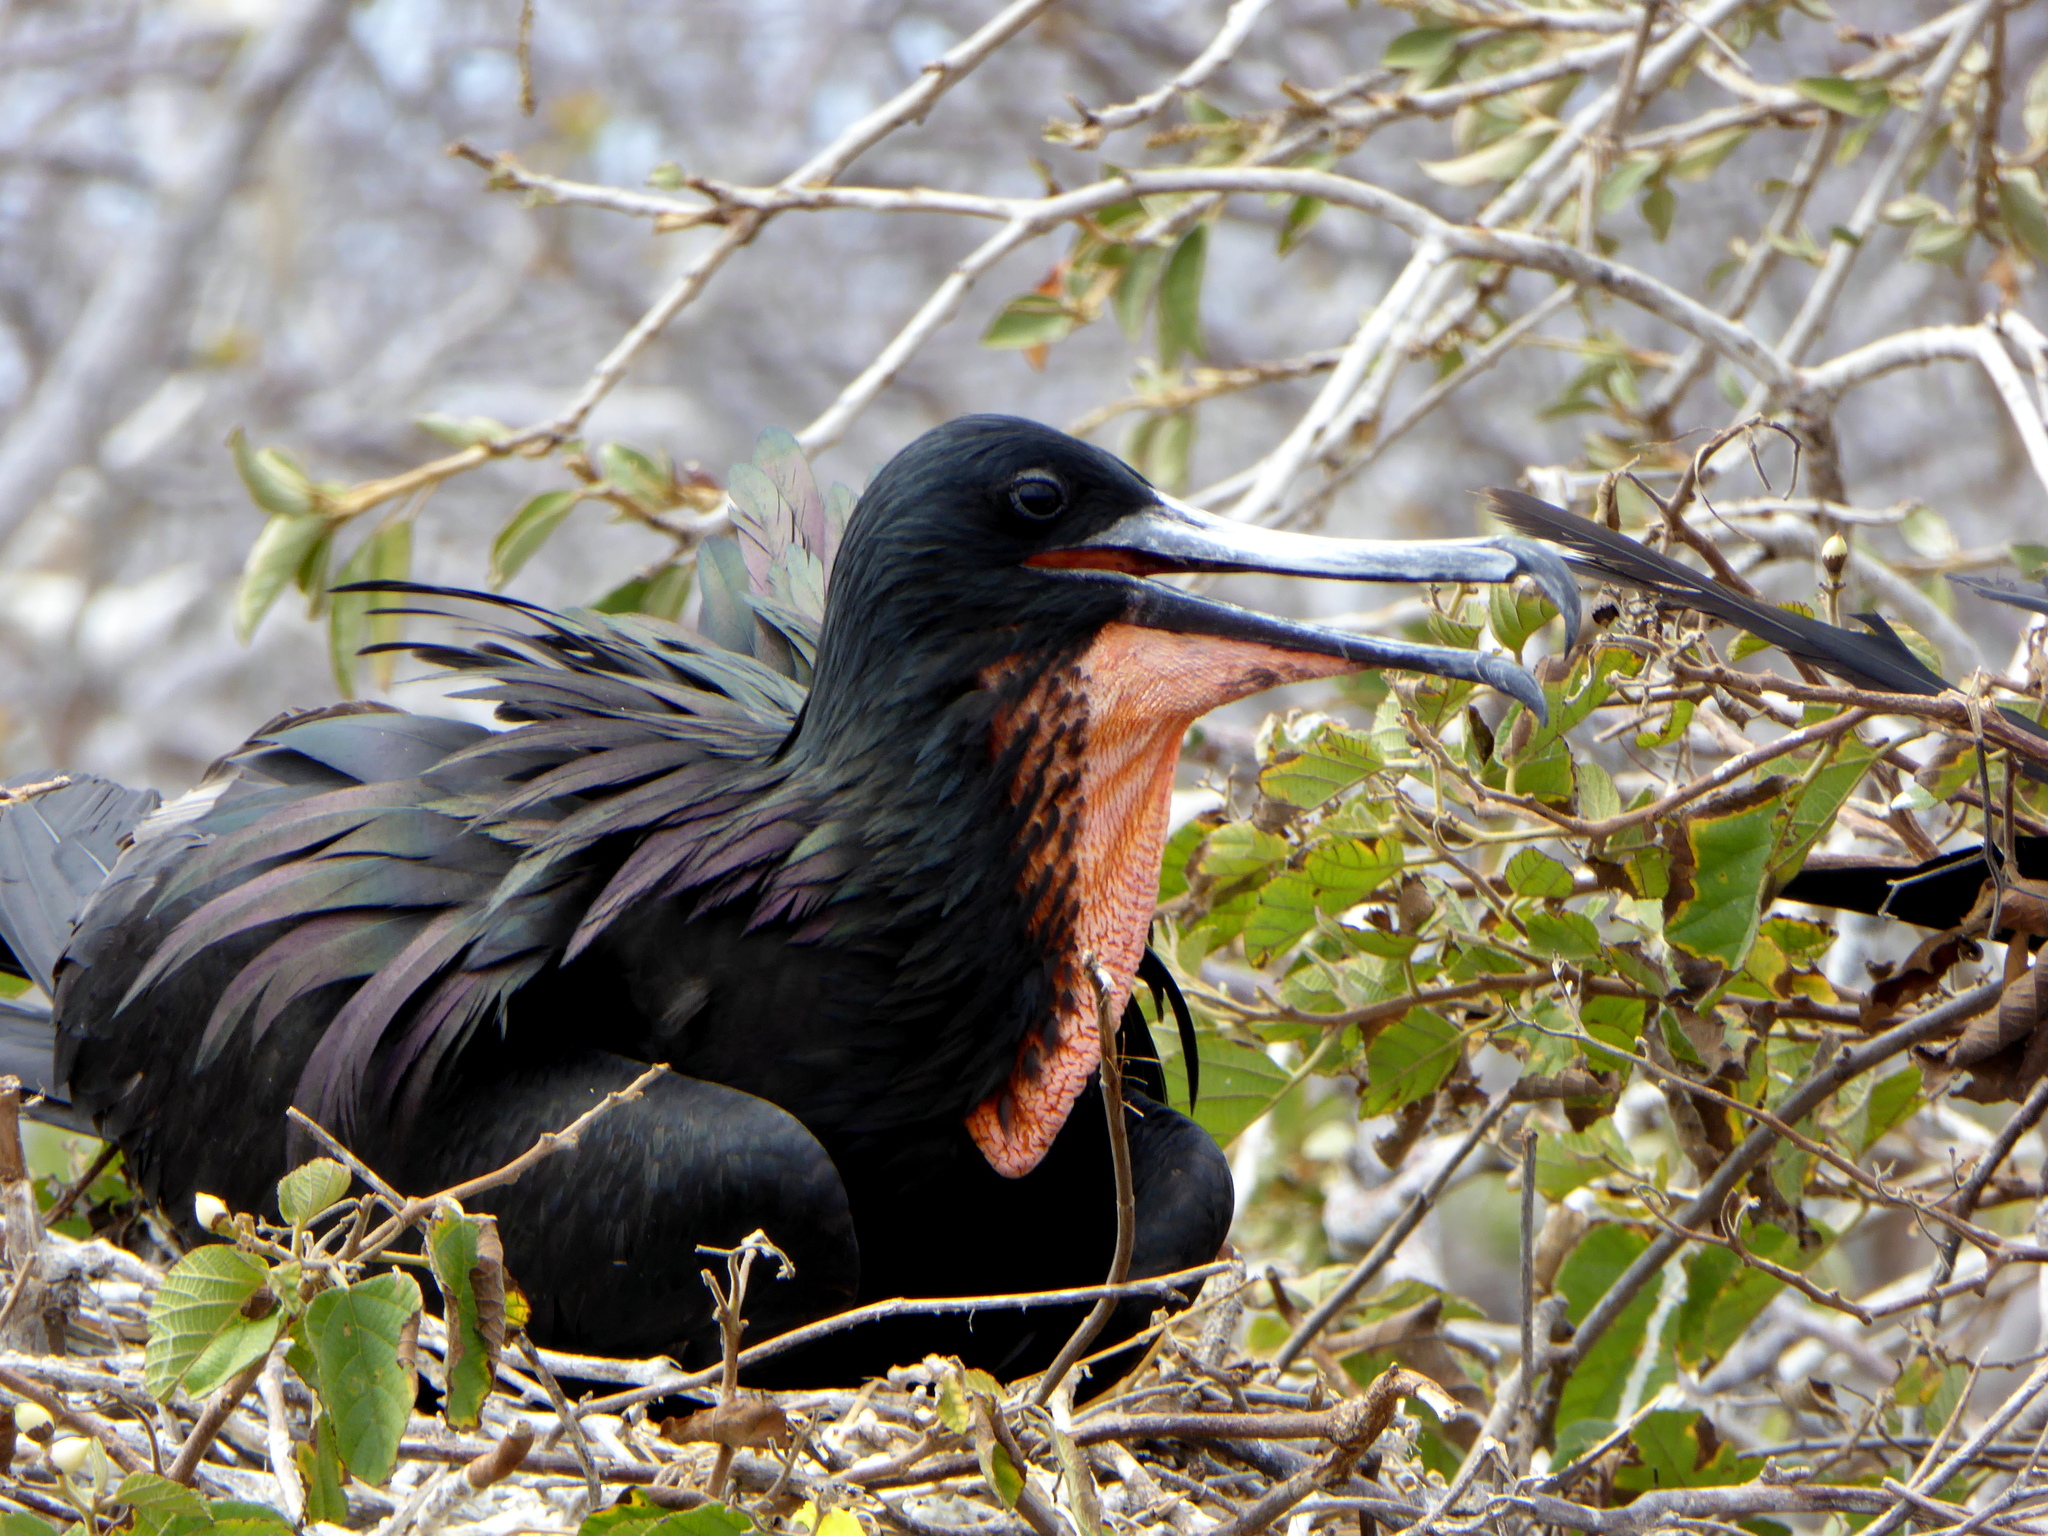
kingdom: Animalia
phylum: Chordata
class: Aves
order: Suliformes
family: Fregatidae
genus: Fregata
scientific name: Fregata magnificens
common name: Magnificent frigatebird
